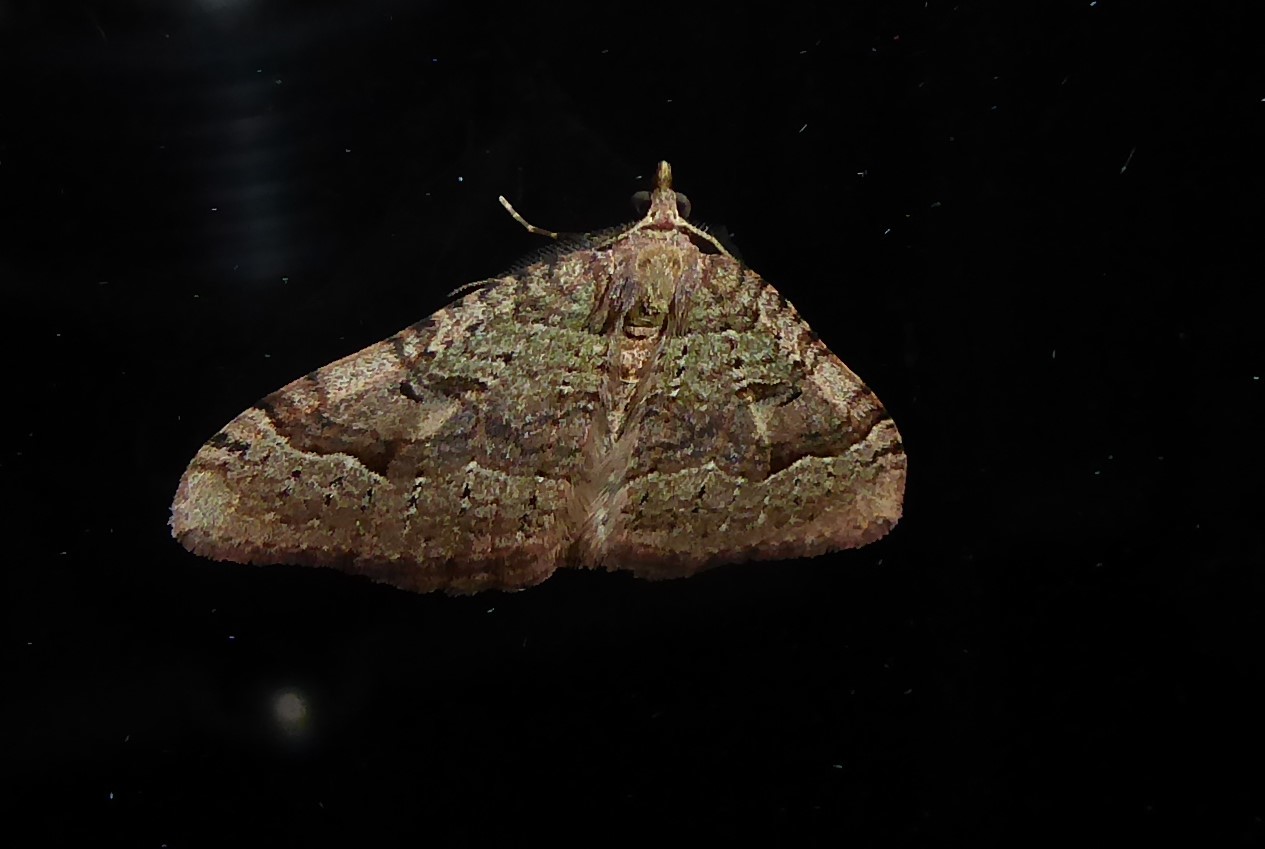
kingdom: Animalia
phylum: Arthropoda
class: Insecta
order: Lepidoptera
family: Geometridae
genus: Epyaxa
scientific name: Epyaxa rosearia
